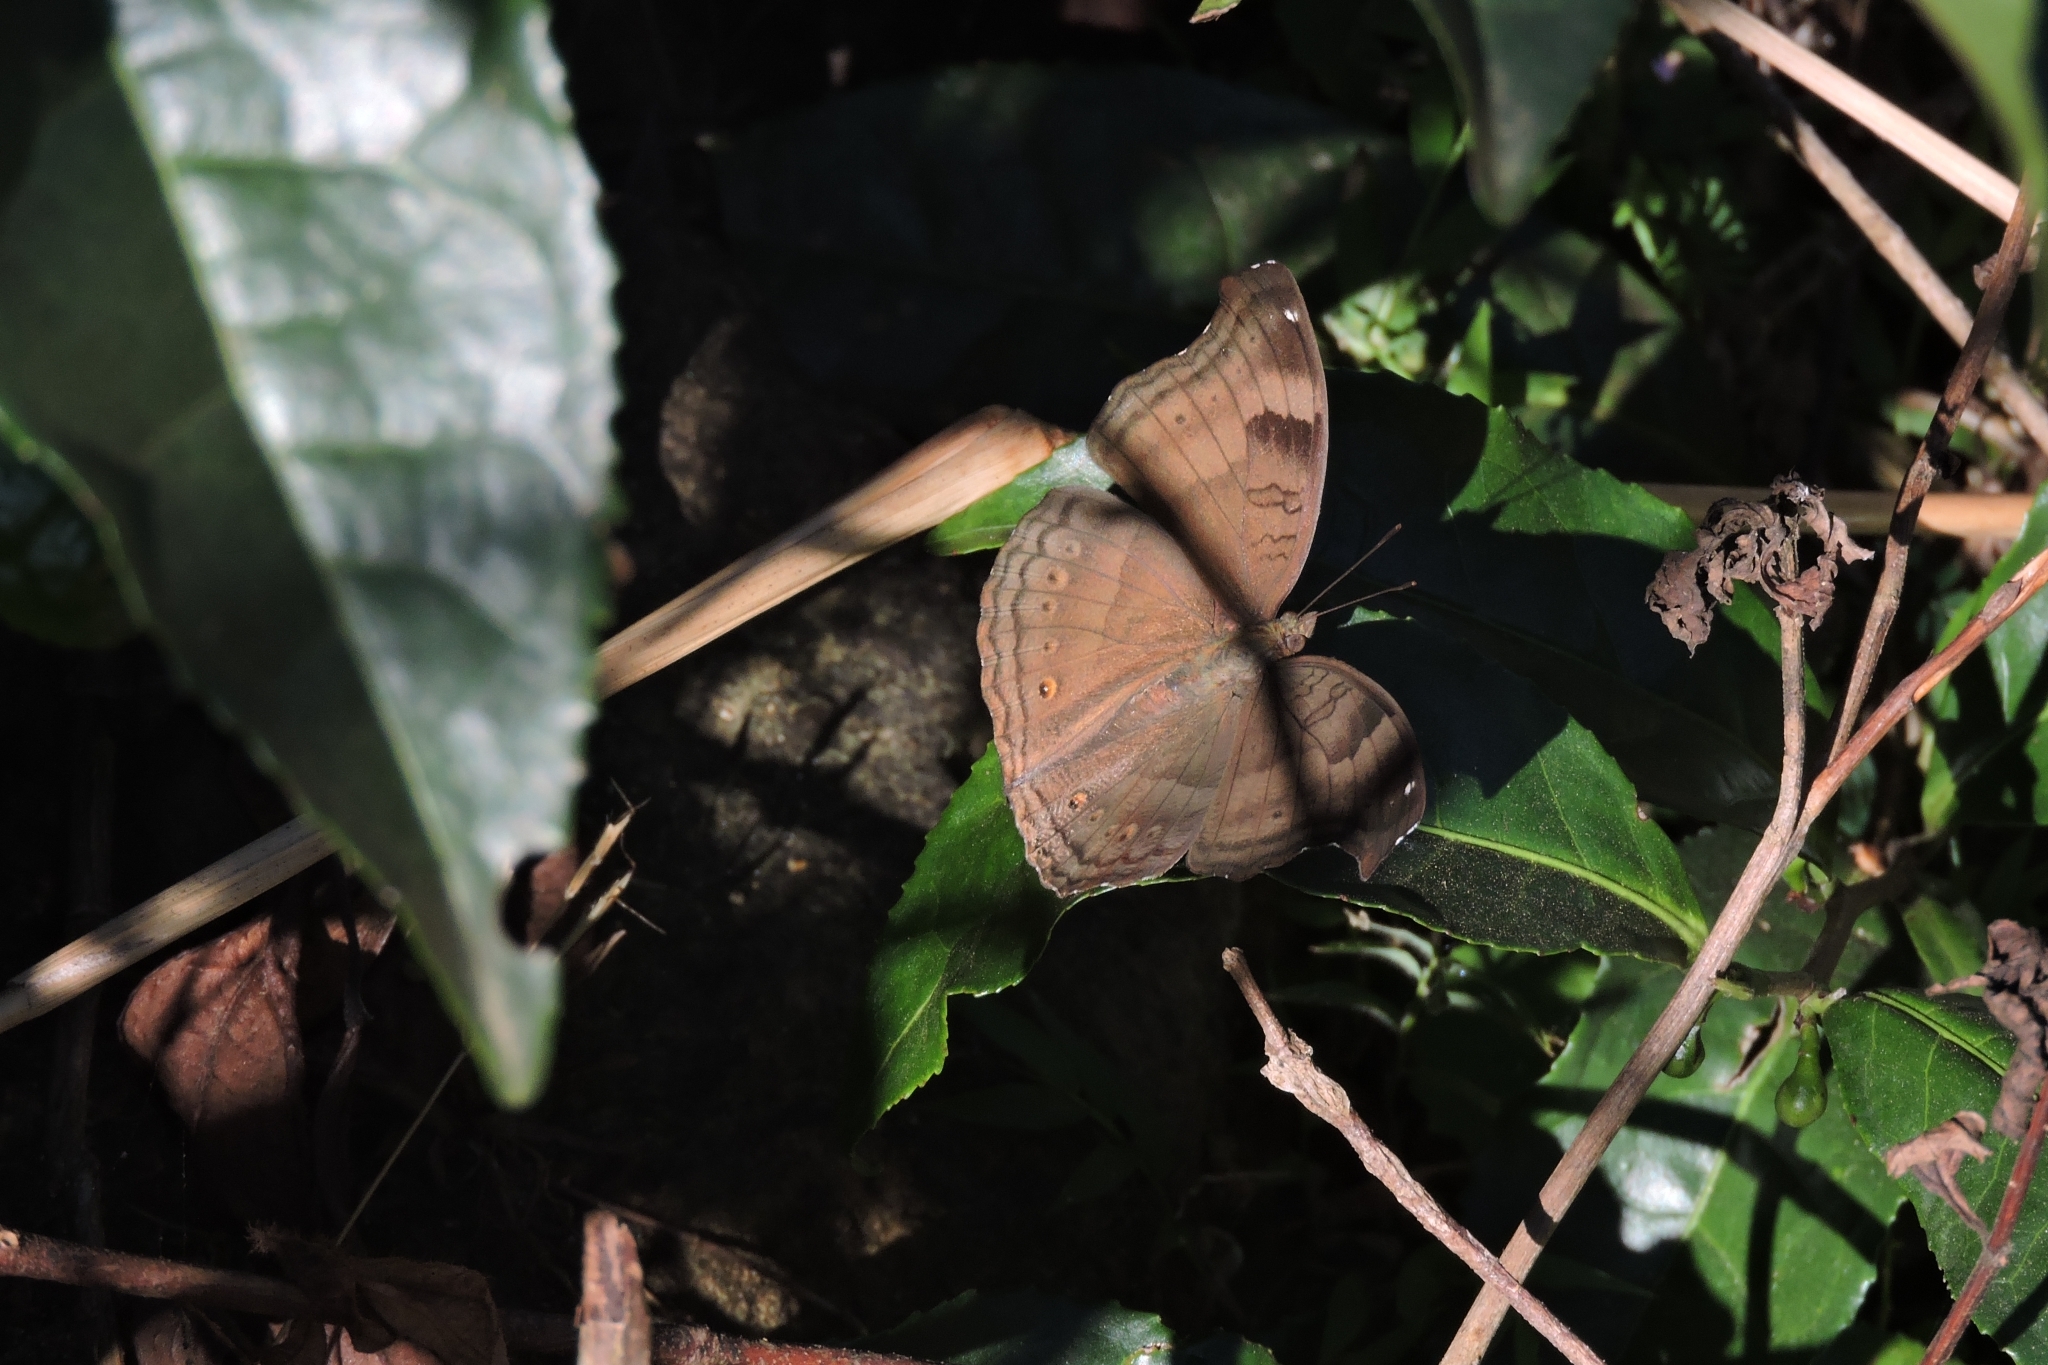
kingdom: Animalia
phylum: Arthropoda
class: Insecta
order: Lepidoptera
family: Nymphalidae
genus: Junonia
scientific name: Junonia iphita
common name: Chocolate pansy
